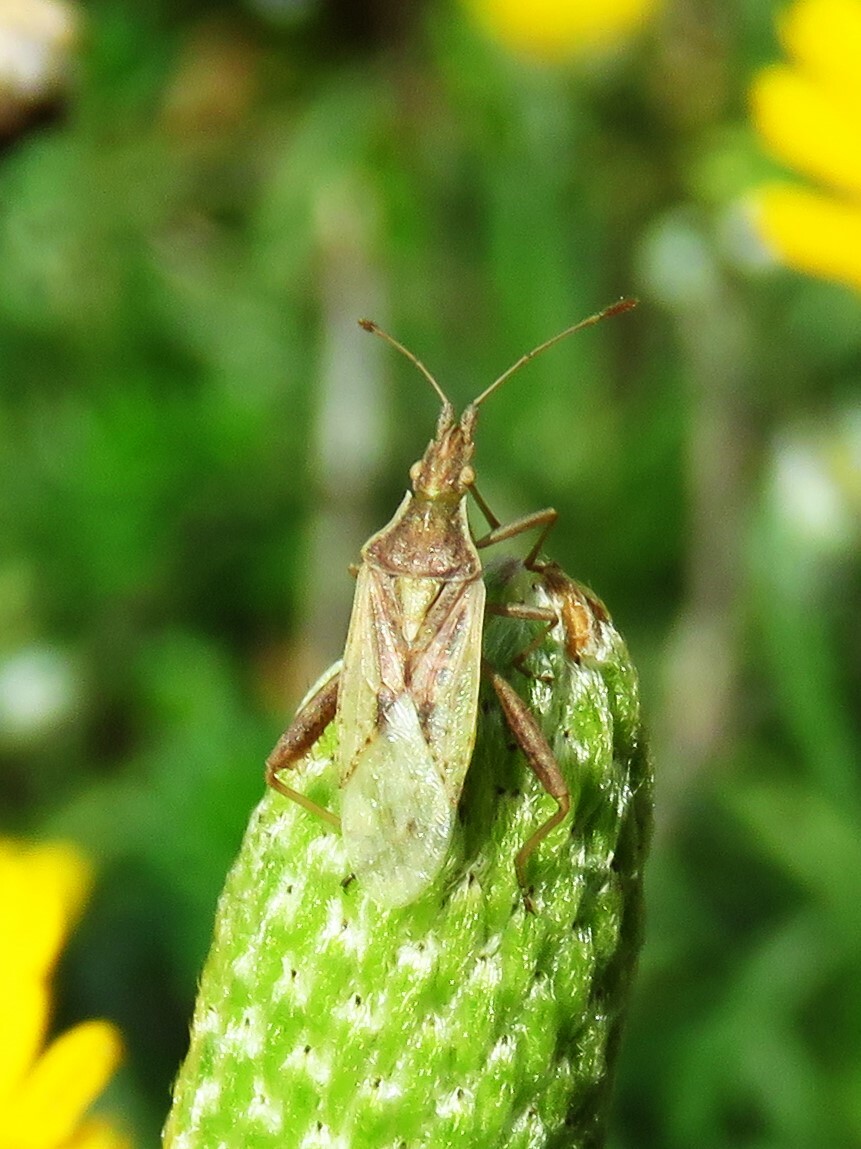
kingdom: Animalia
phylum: Arthropoda
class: Insecta
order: Hemiptera
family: Rhopalidae
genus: Harmostes
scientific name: Harmostes reflexulus
